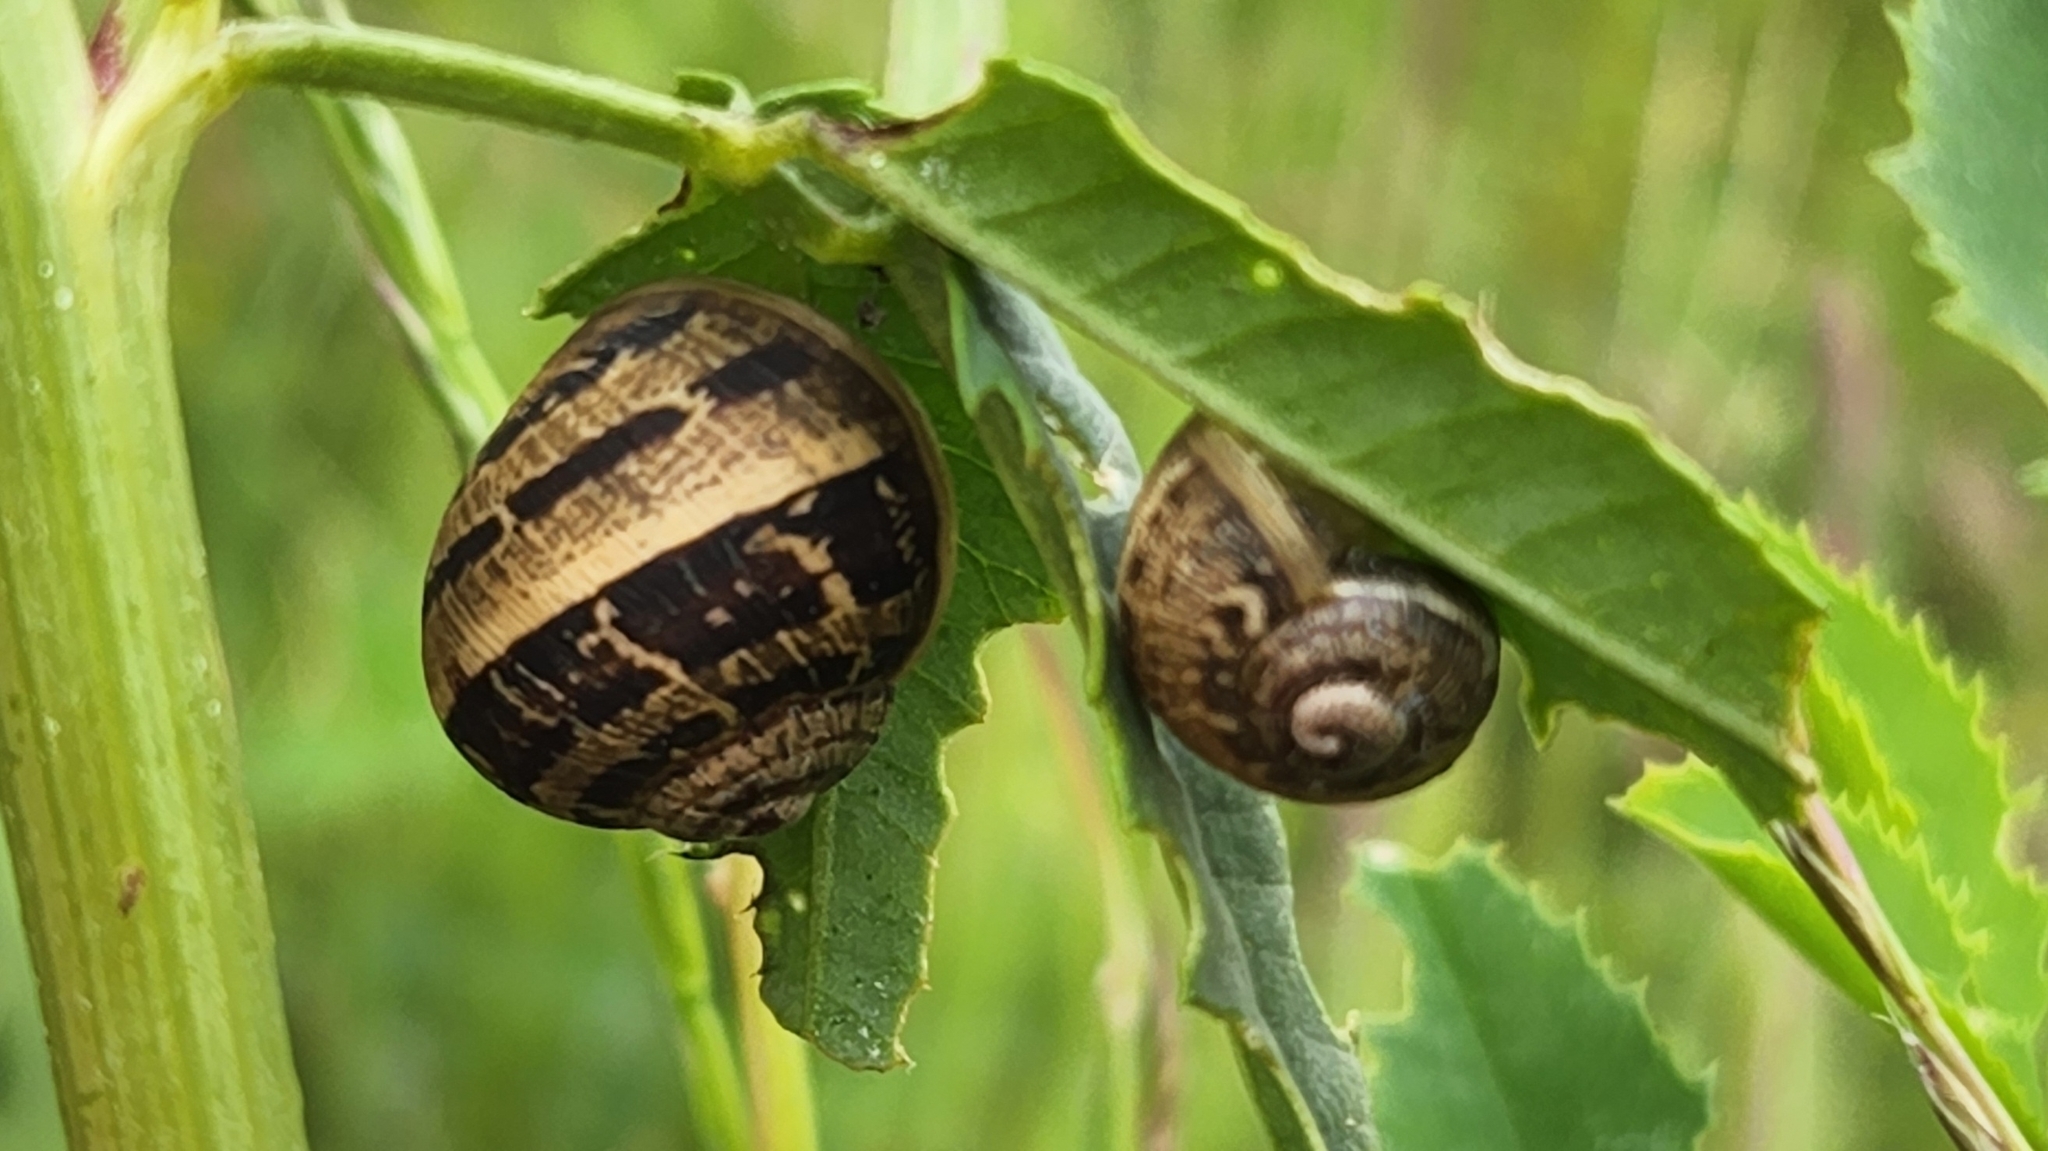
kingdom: Animalia
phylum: Mollusca
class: Gastropoda
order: Stylommatophora
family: Helicidae
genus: Cornu
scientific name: Cornu aspersum
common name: Brown garden snail
